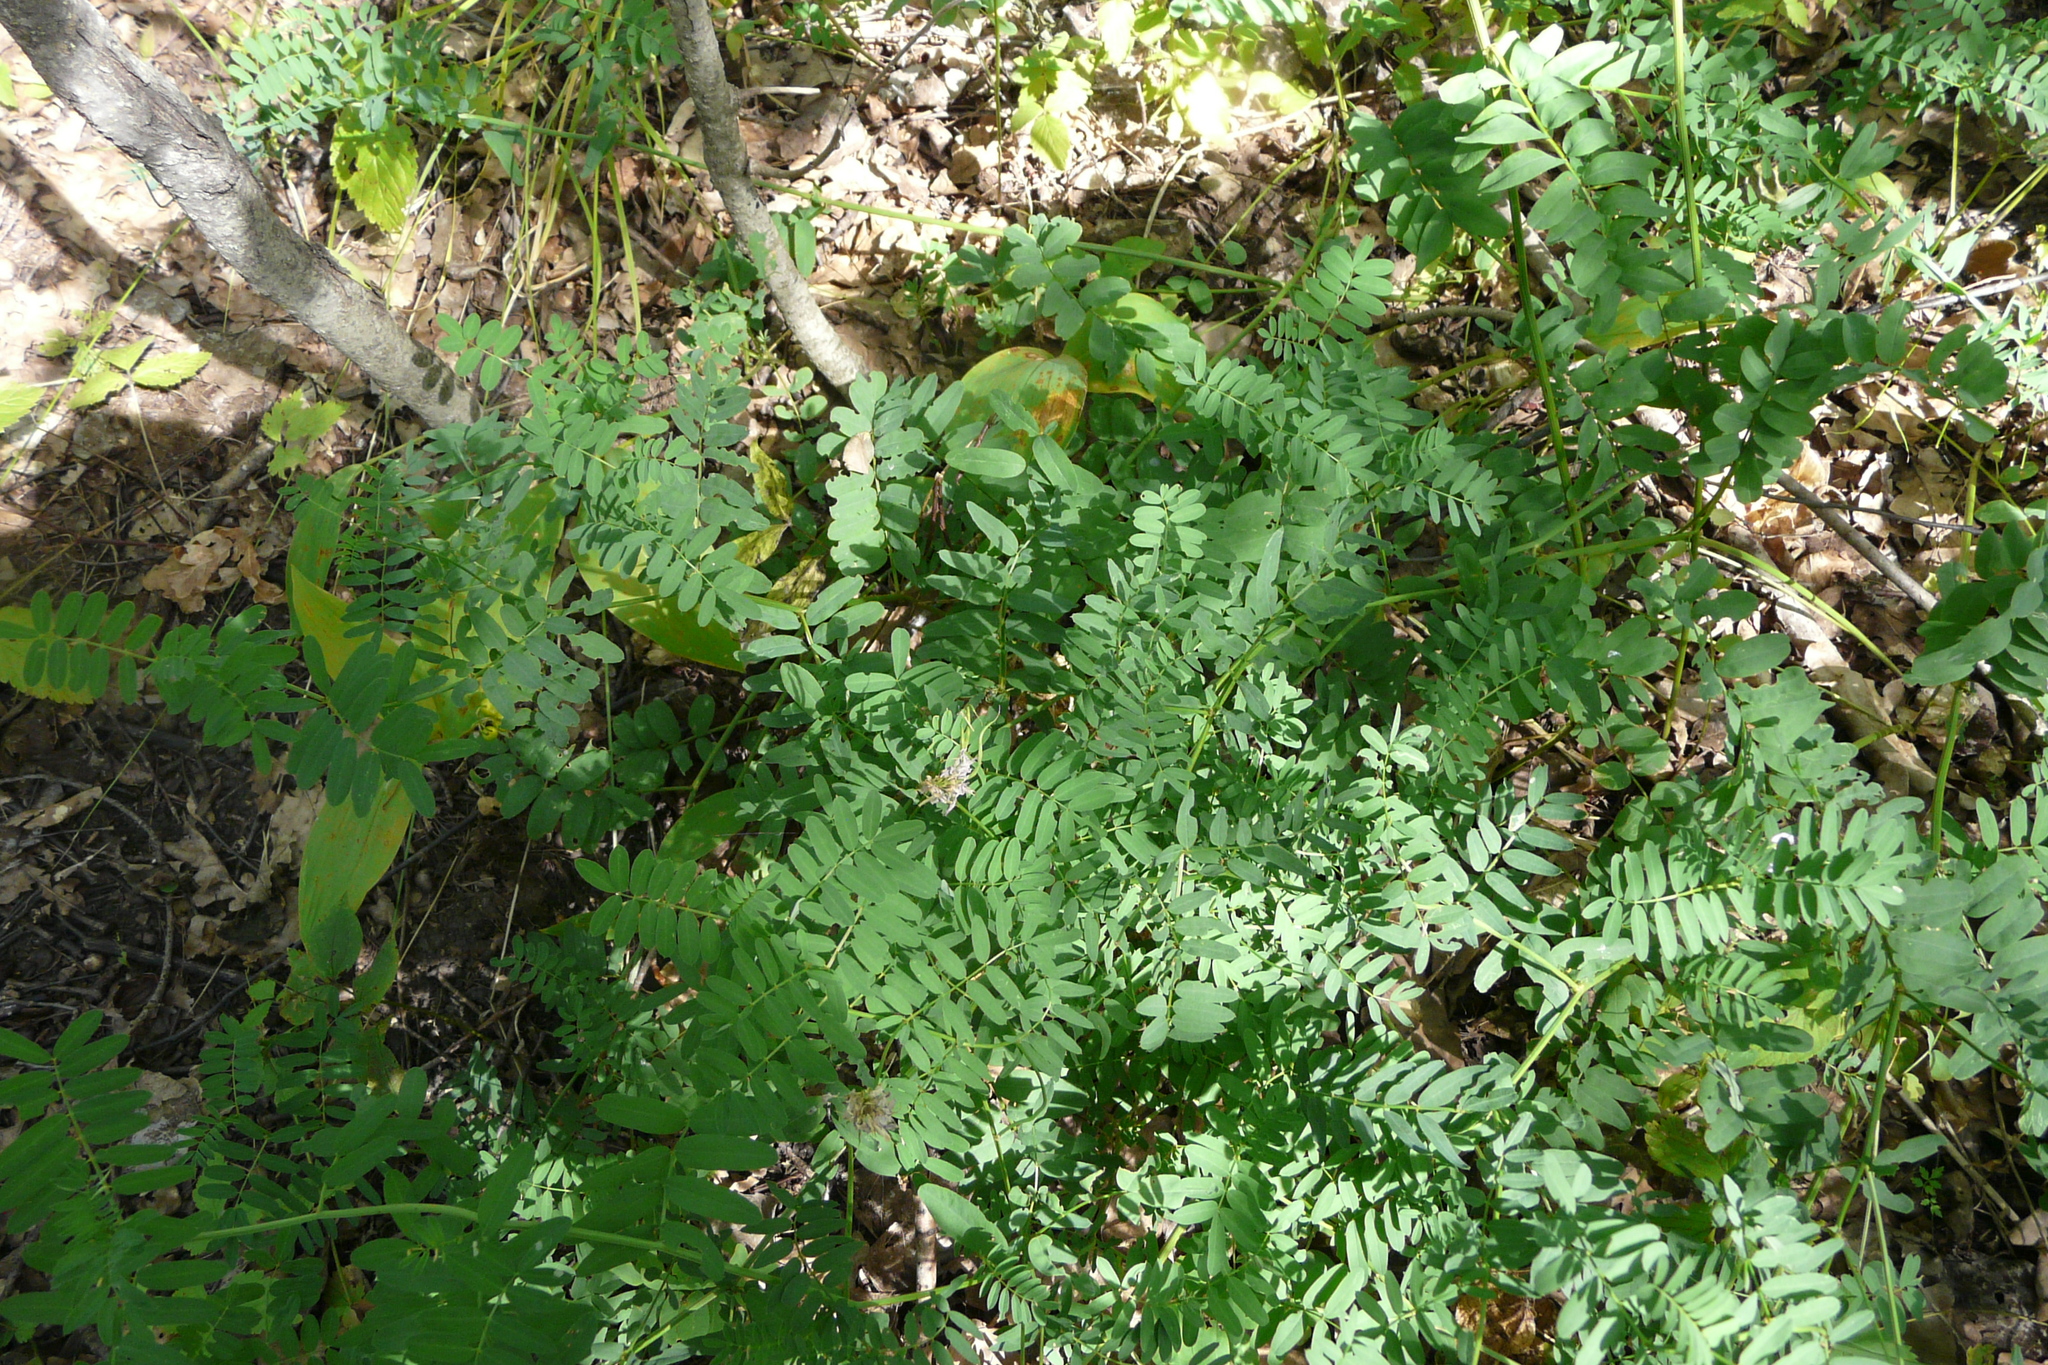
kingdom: Plantae
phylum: Tracheophyta
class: Magnoliopsida
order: Fabales
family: Fabaceae
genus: Coronilla
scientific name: Coronilla varia
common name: Crownvetch
